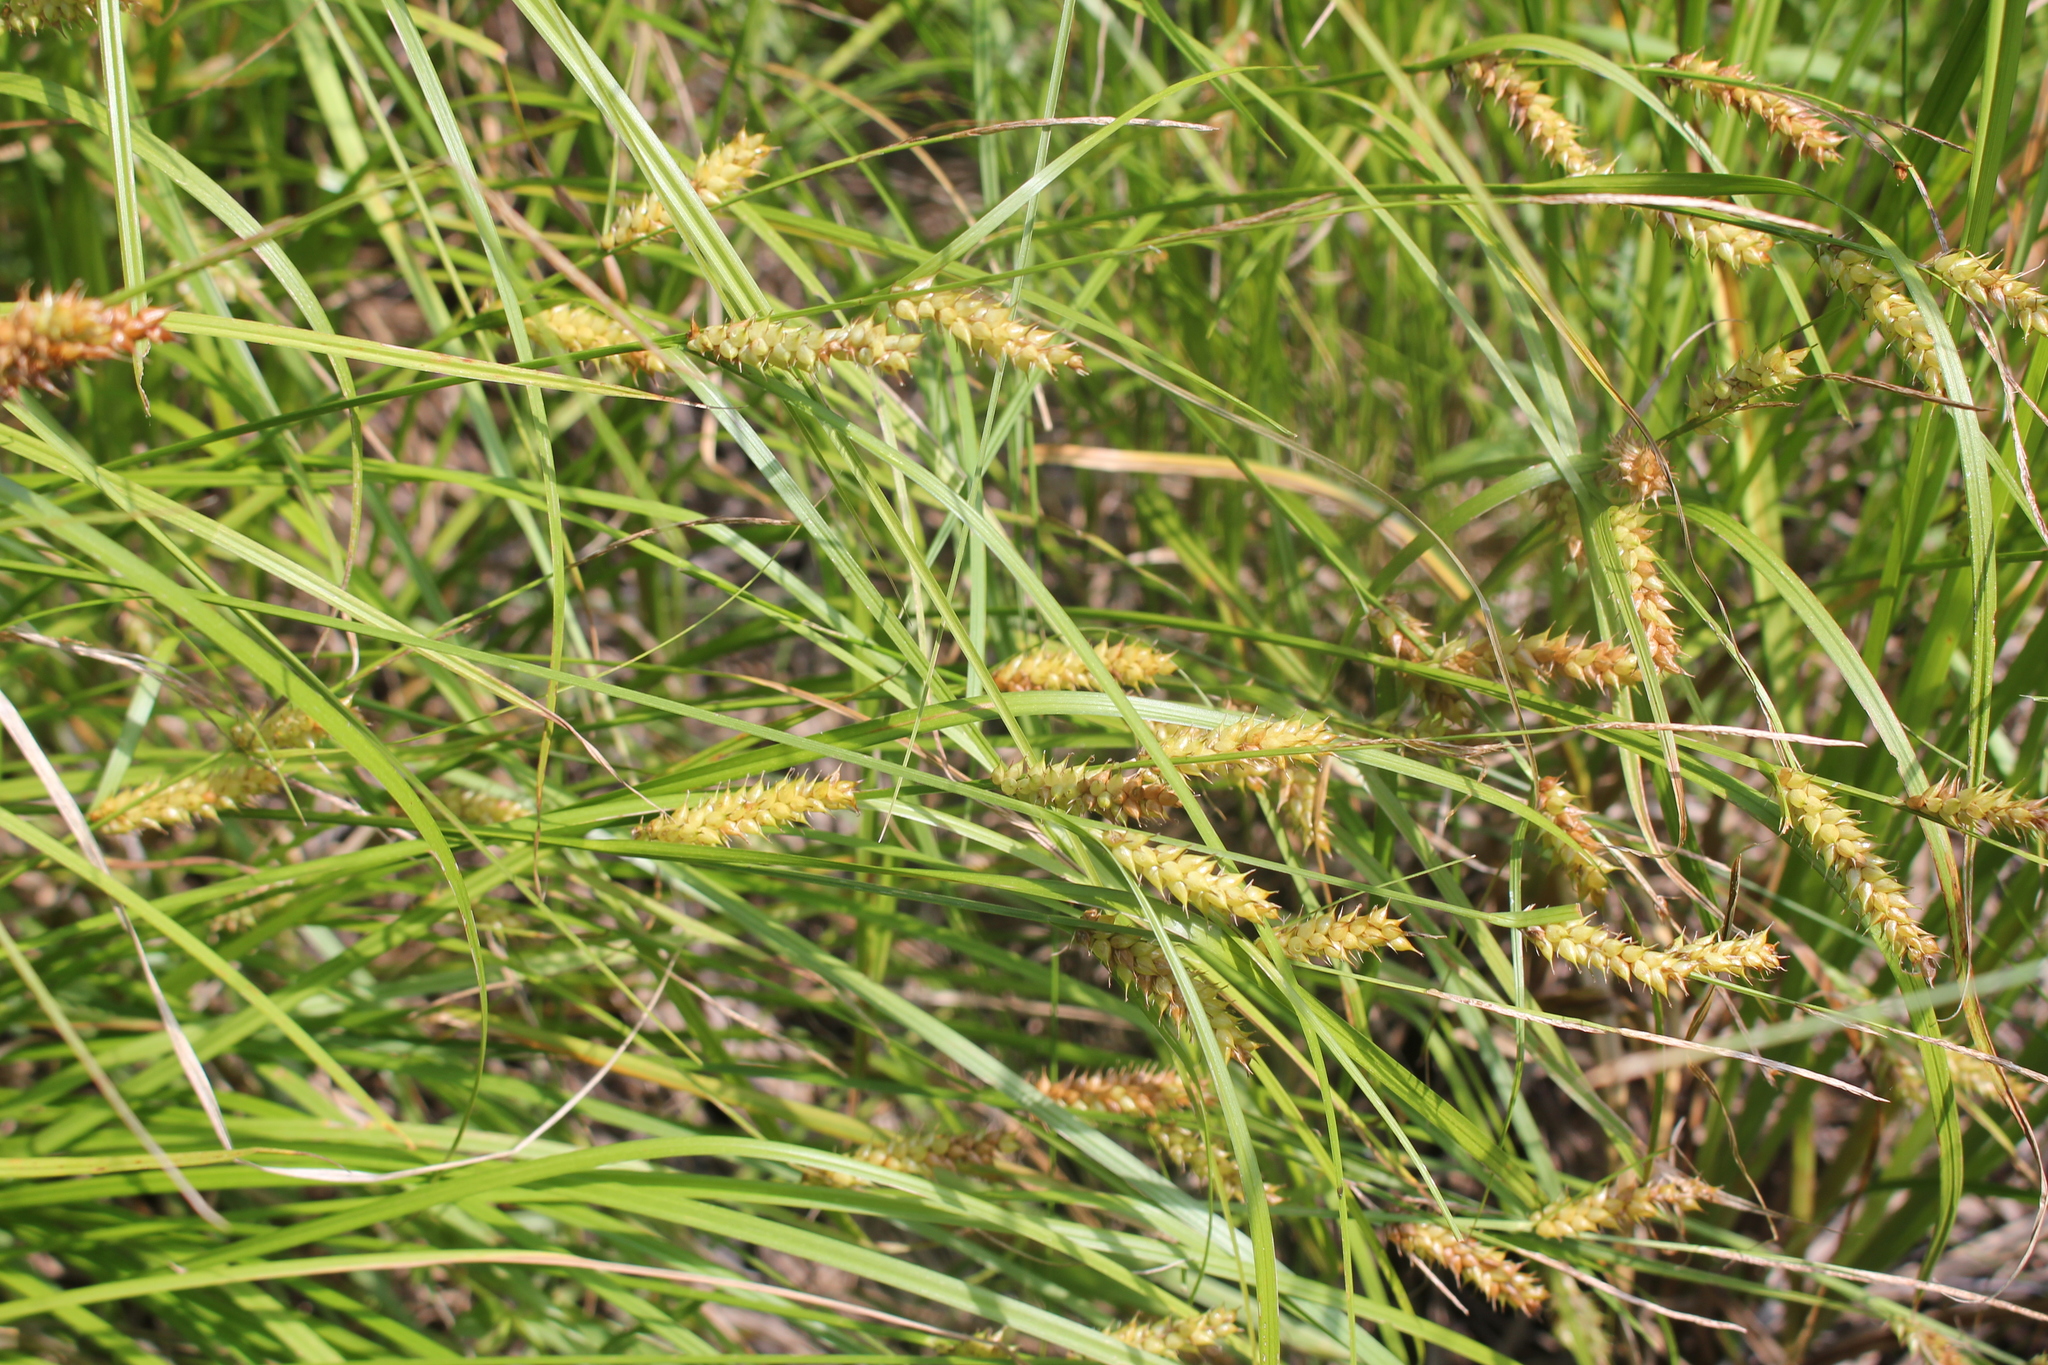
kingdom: Plantae
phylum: Tracheophyta
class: Liliopsida
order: Poales
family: Cyperaceae
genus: Carex
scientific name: Carex vesicaria
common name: Bladder-sedge
